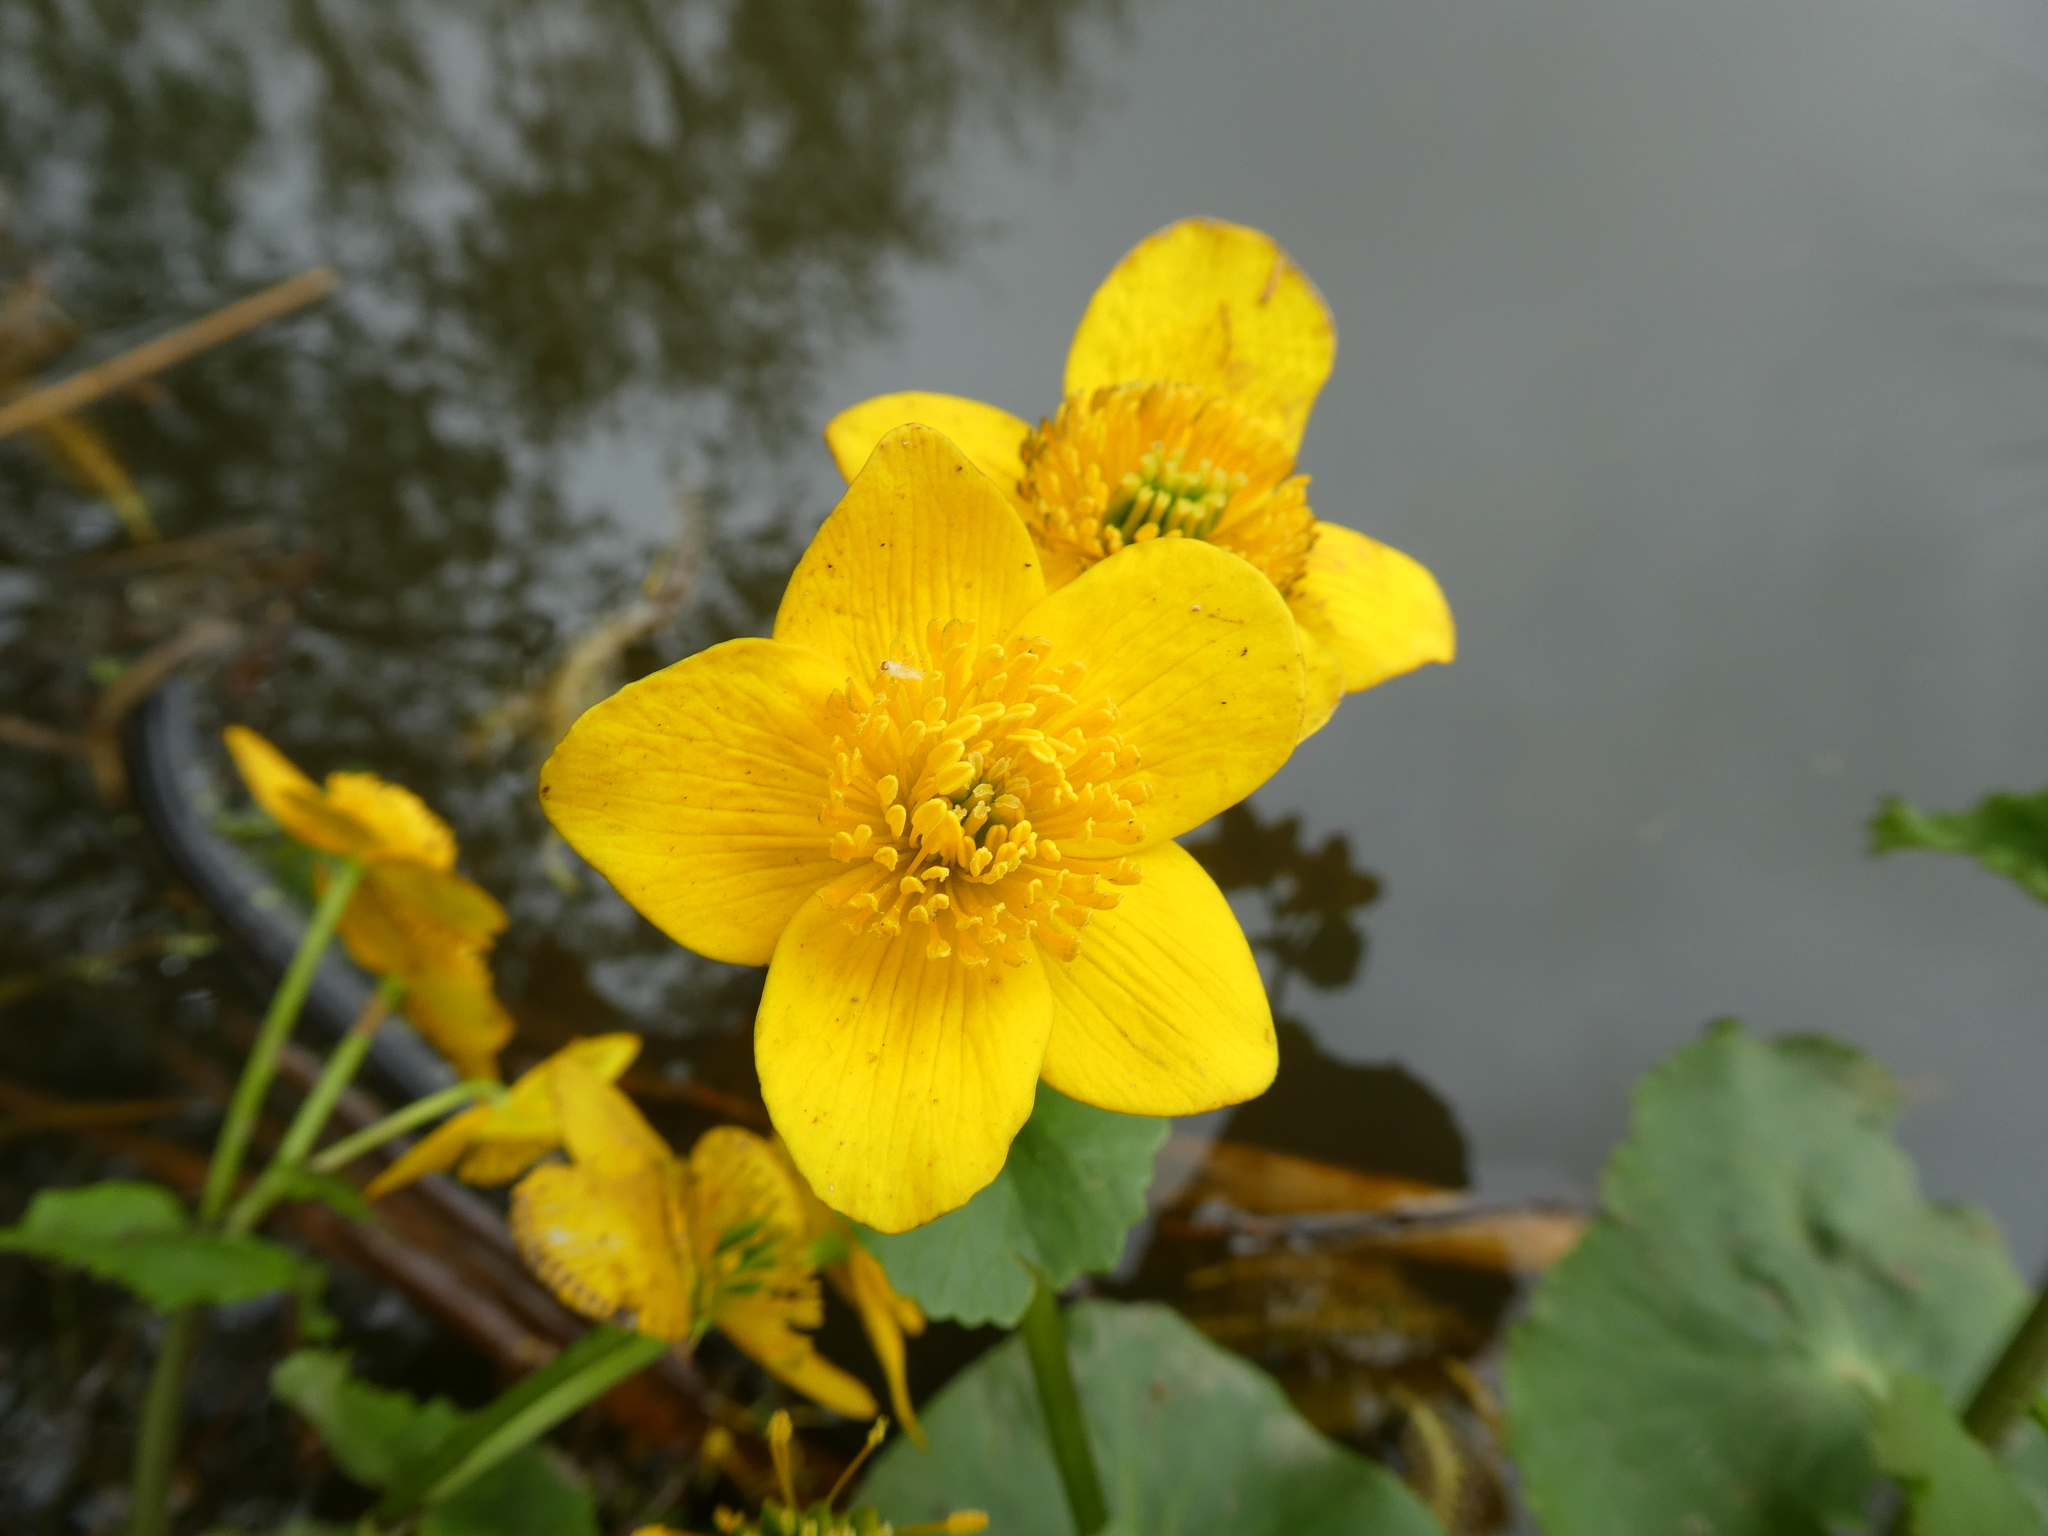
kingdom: Plantae
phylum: Tracheophyta
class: Magnoliopsida
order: Ranunculales
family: Ranunculaceae
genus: Caltha
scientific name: Caltha palustris
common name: Marsh marigold
